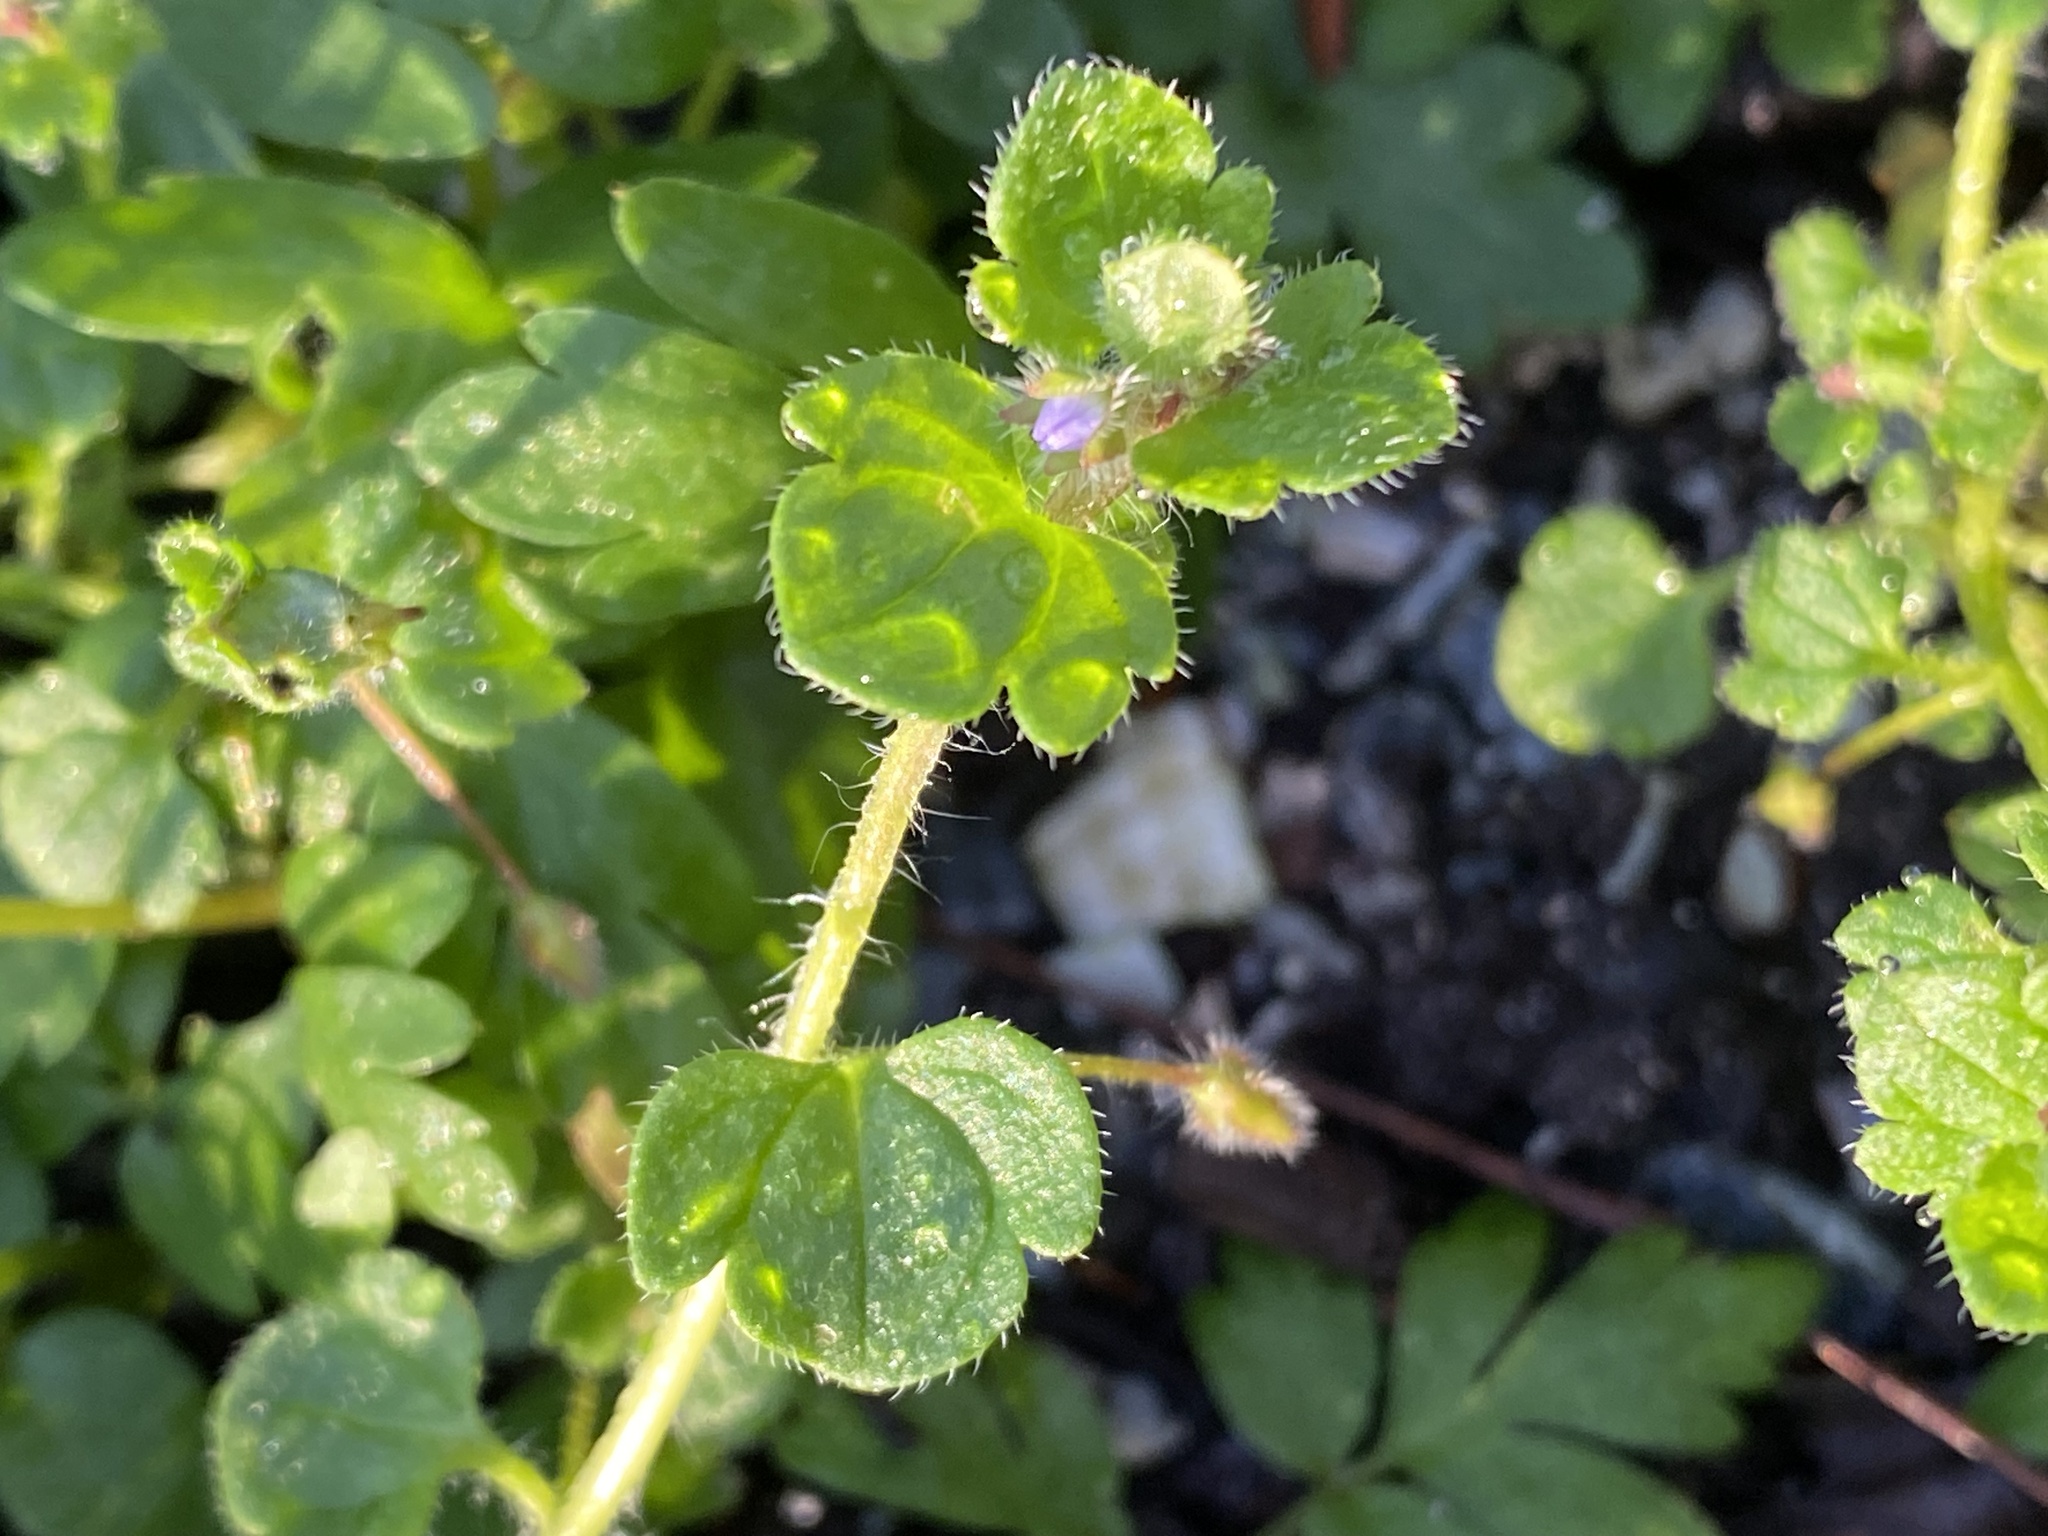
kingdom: Plantae
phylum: Tracheophyta
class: Magnoliopsida
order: Lamiales
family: Plantaginaceae
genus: Veronica
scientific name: Veronica hederifolia
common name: Ivy-leaved speedwell
